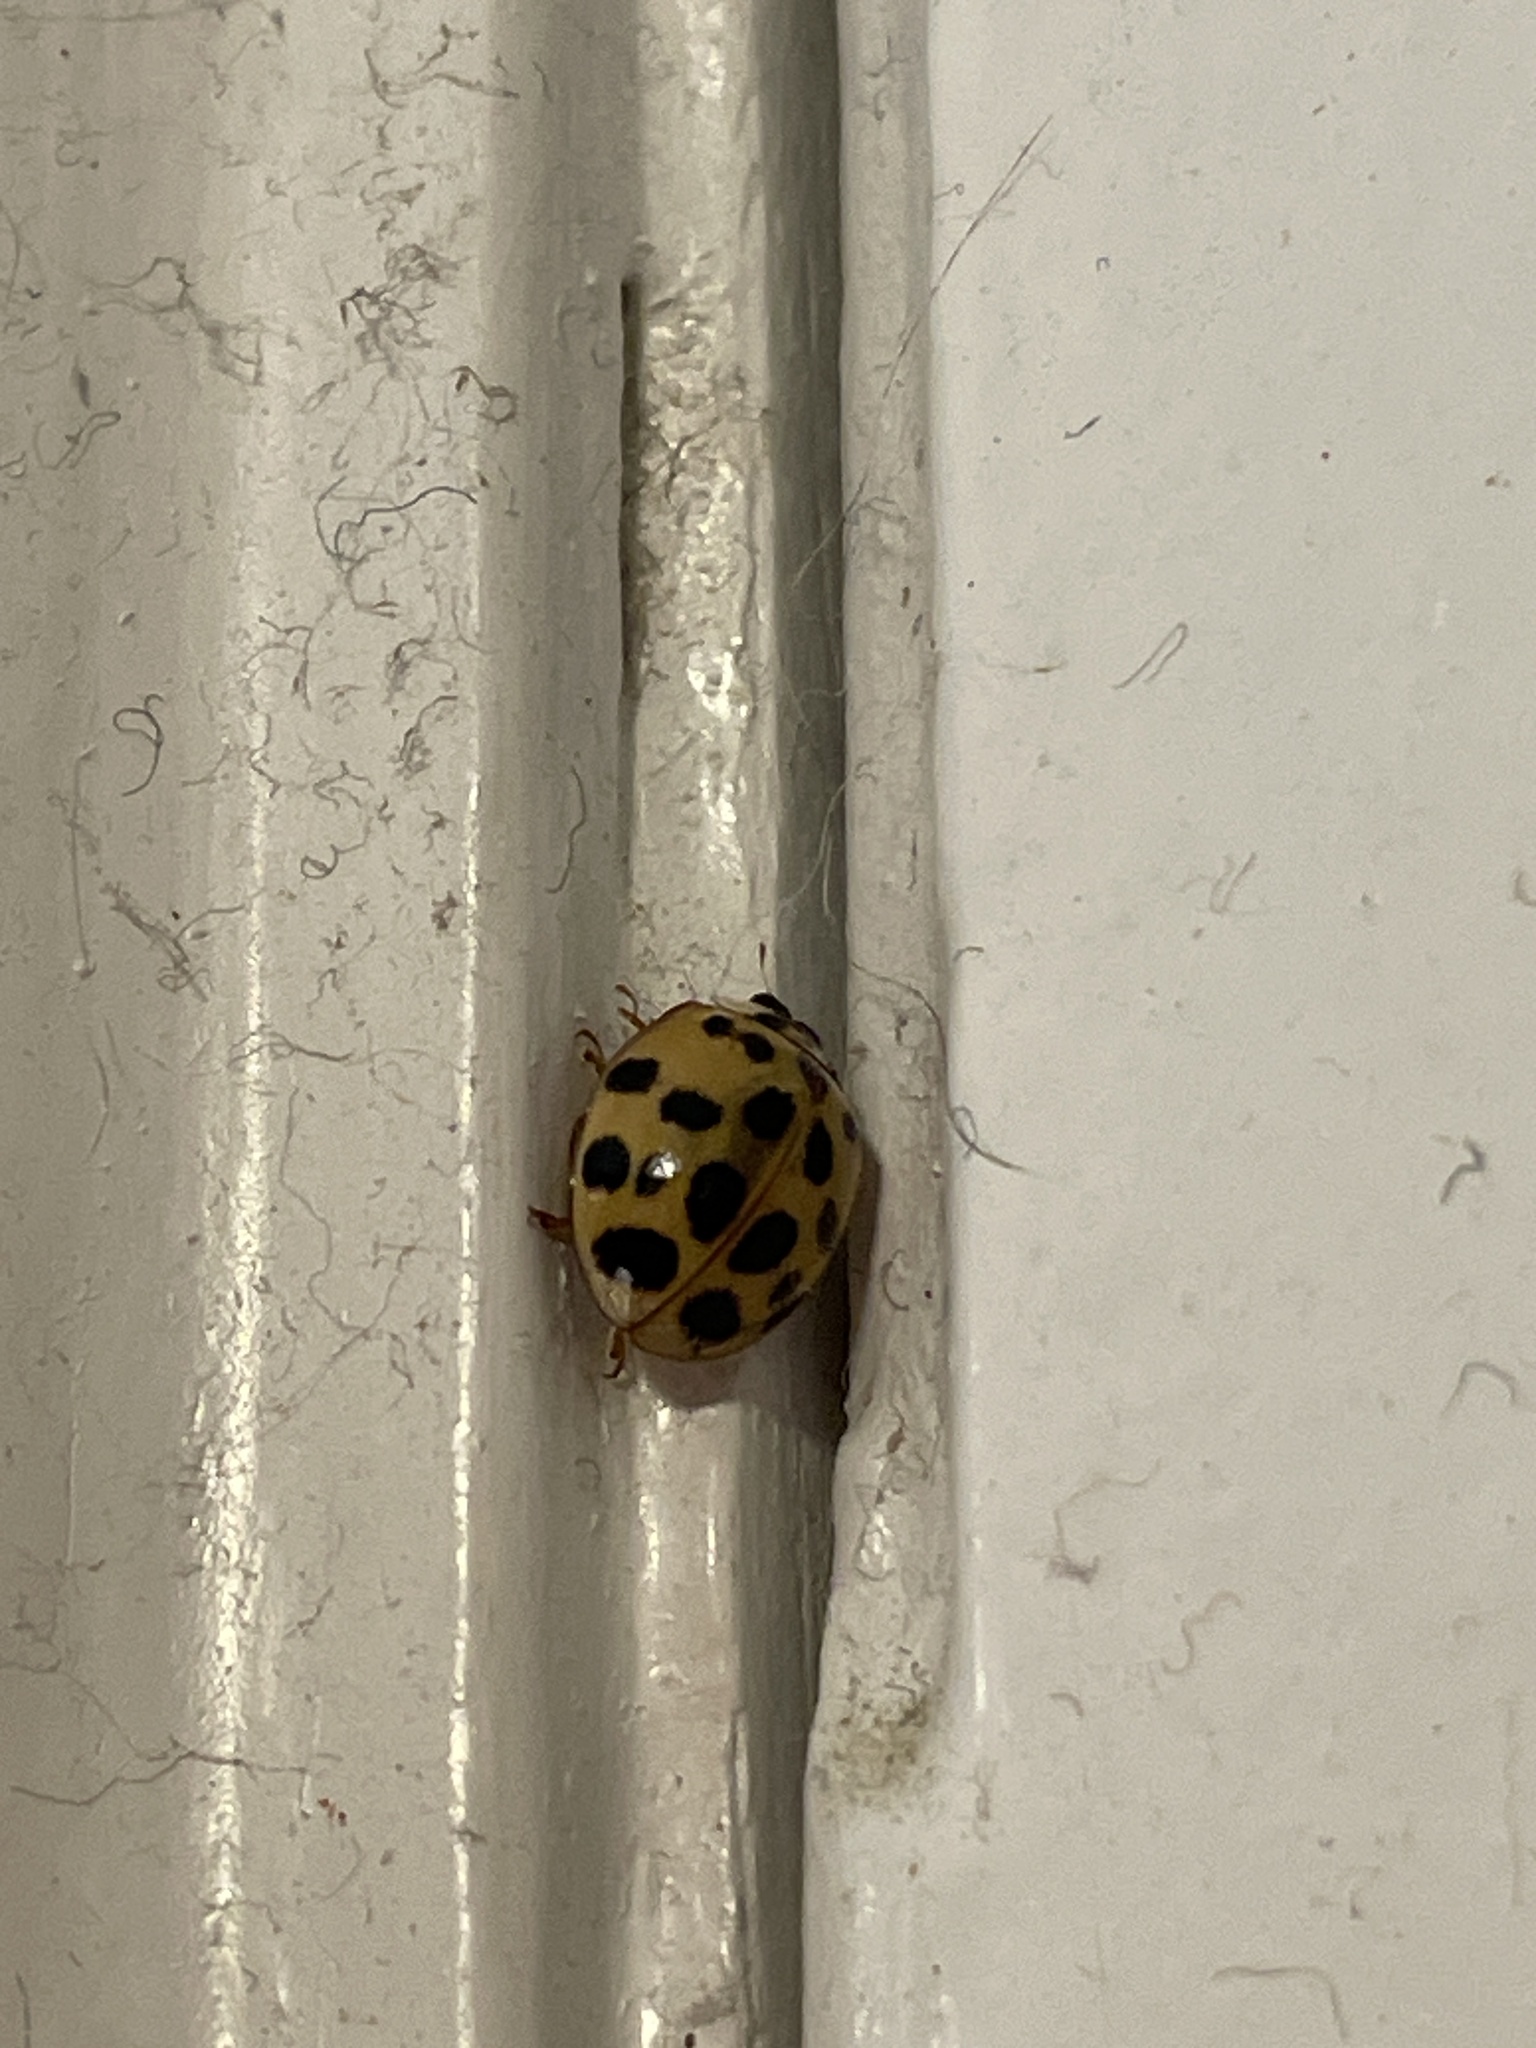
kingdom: Animalia
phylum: Arthropoda
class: Insecta
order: Coleoptera
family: Coccinellidae
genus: Harmonia
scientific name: Harmonia axyridis
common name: Harlequin ladybird
